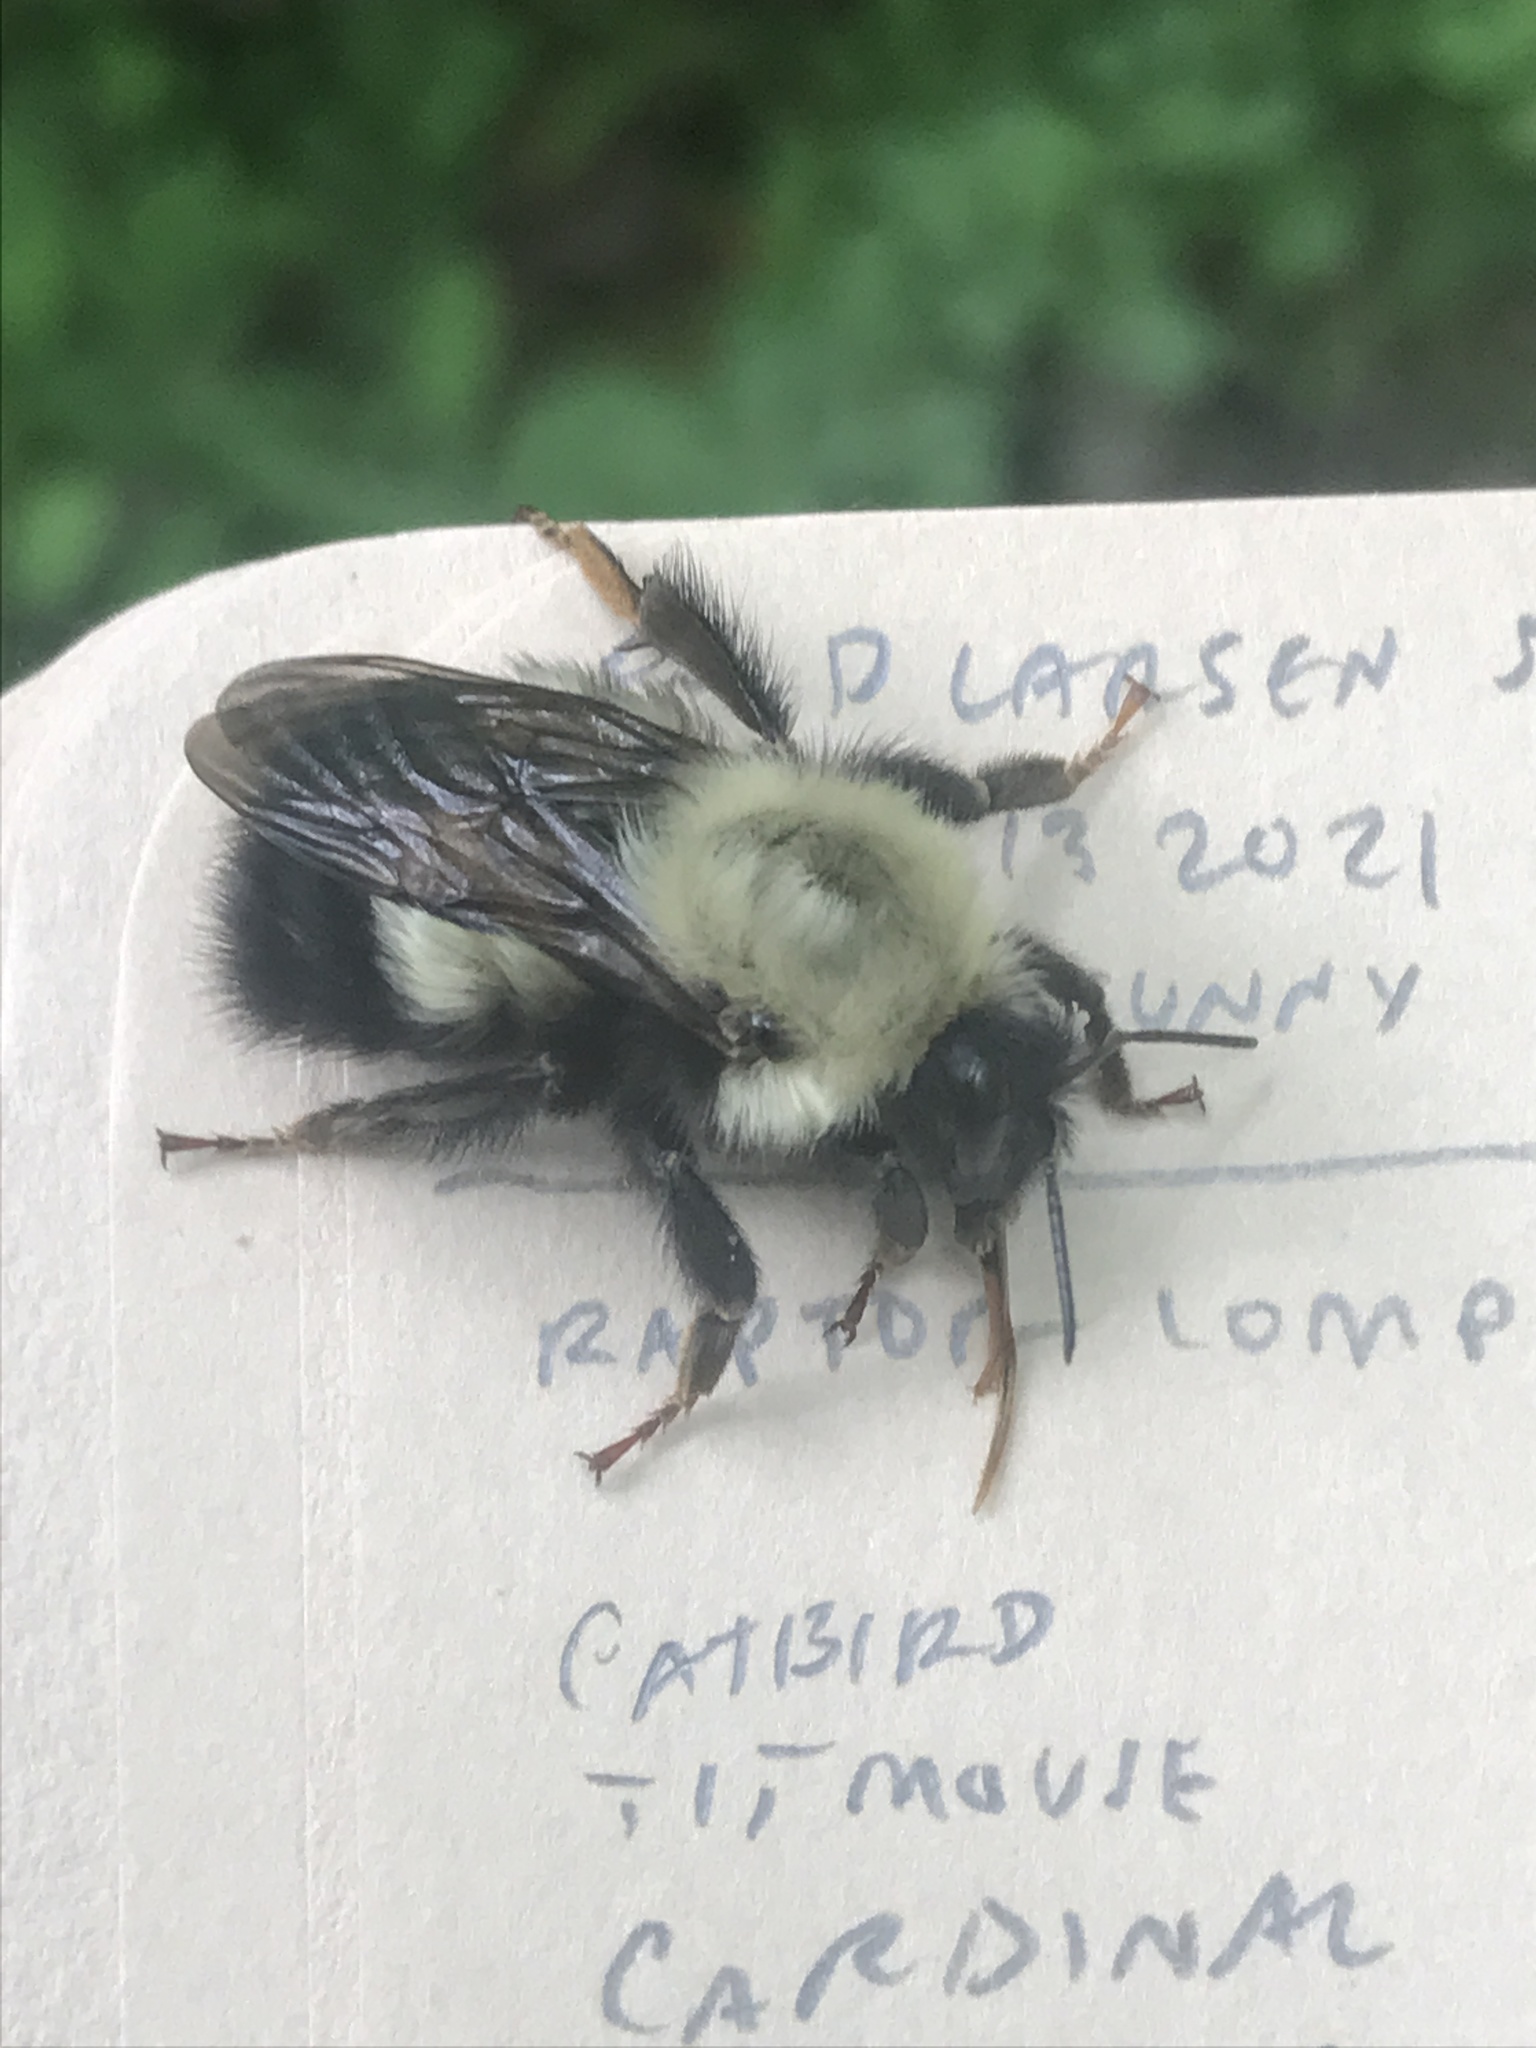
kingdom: Animalia
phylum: Arthropoda
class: Insecta
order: Hymenoptera
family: Apidae
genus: Bombus
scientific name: Bombus perplexus
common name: Confusing bumble bee
